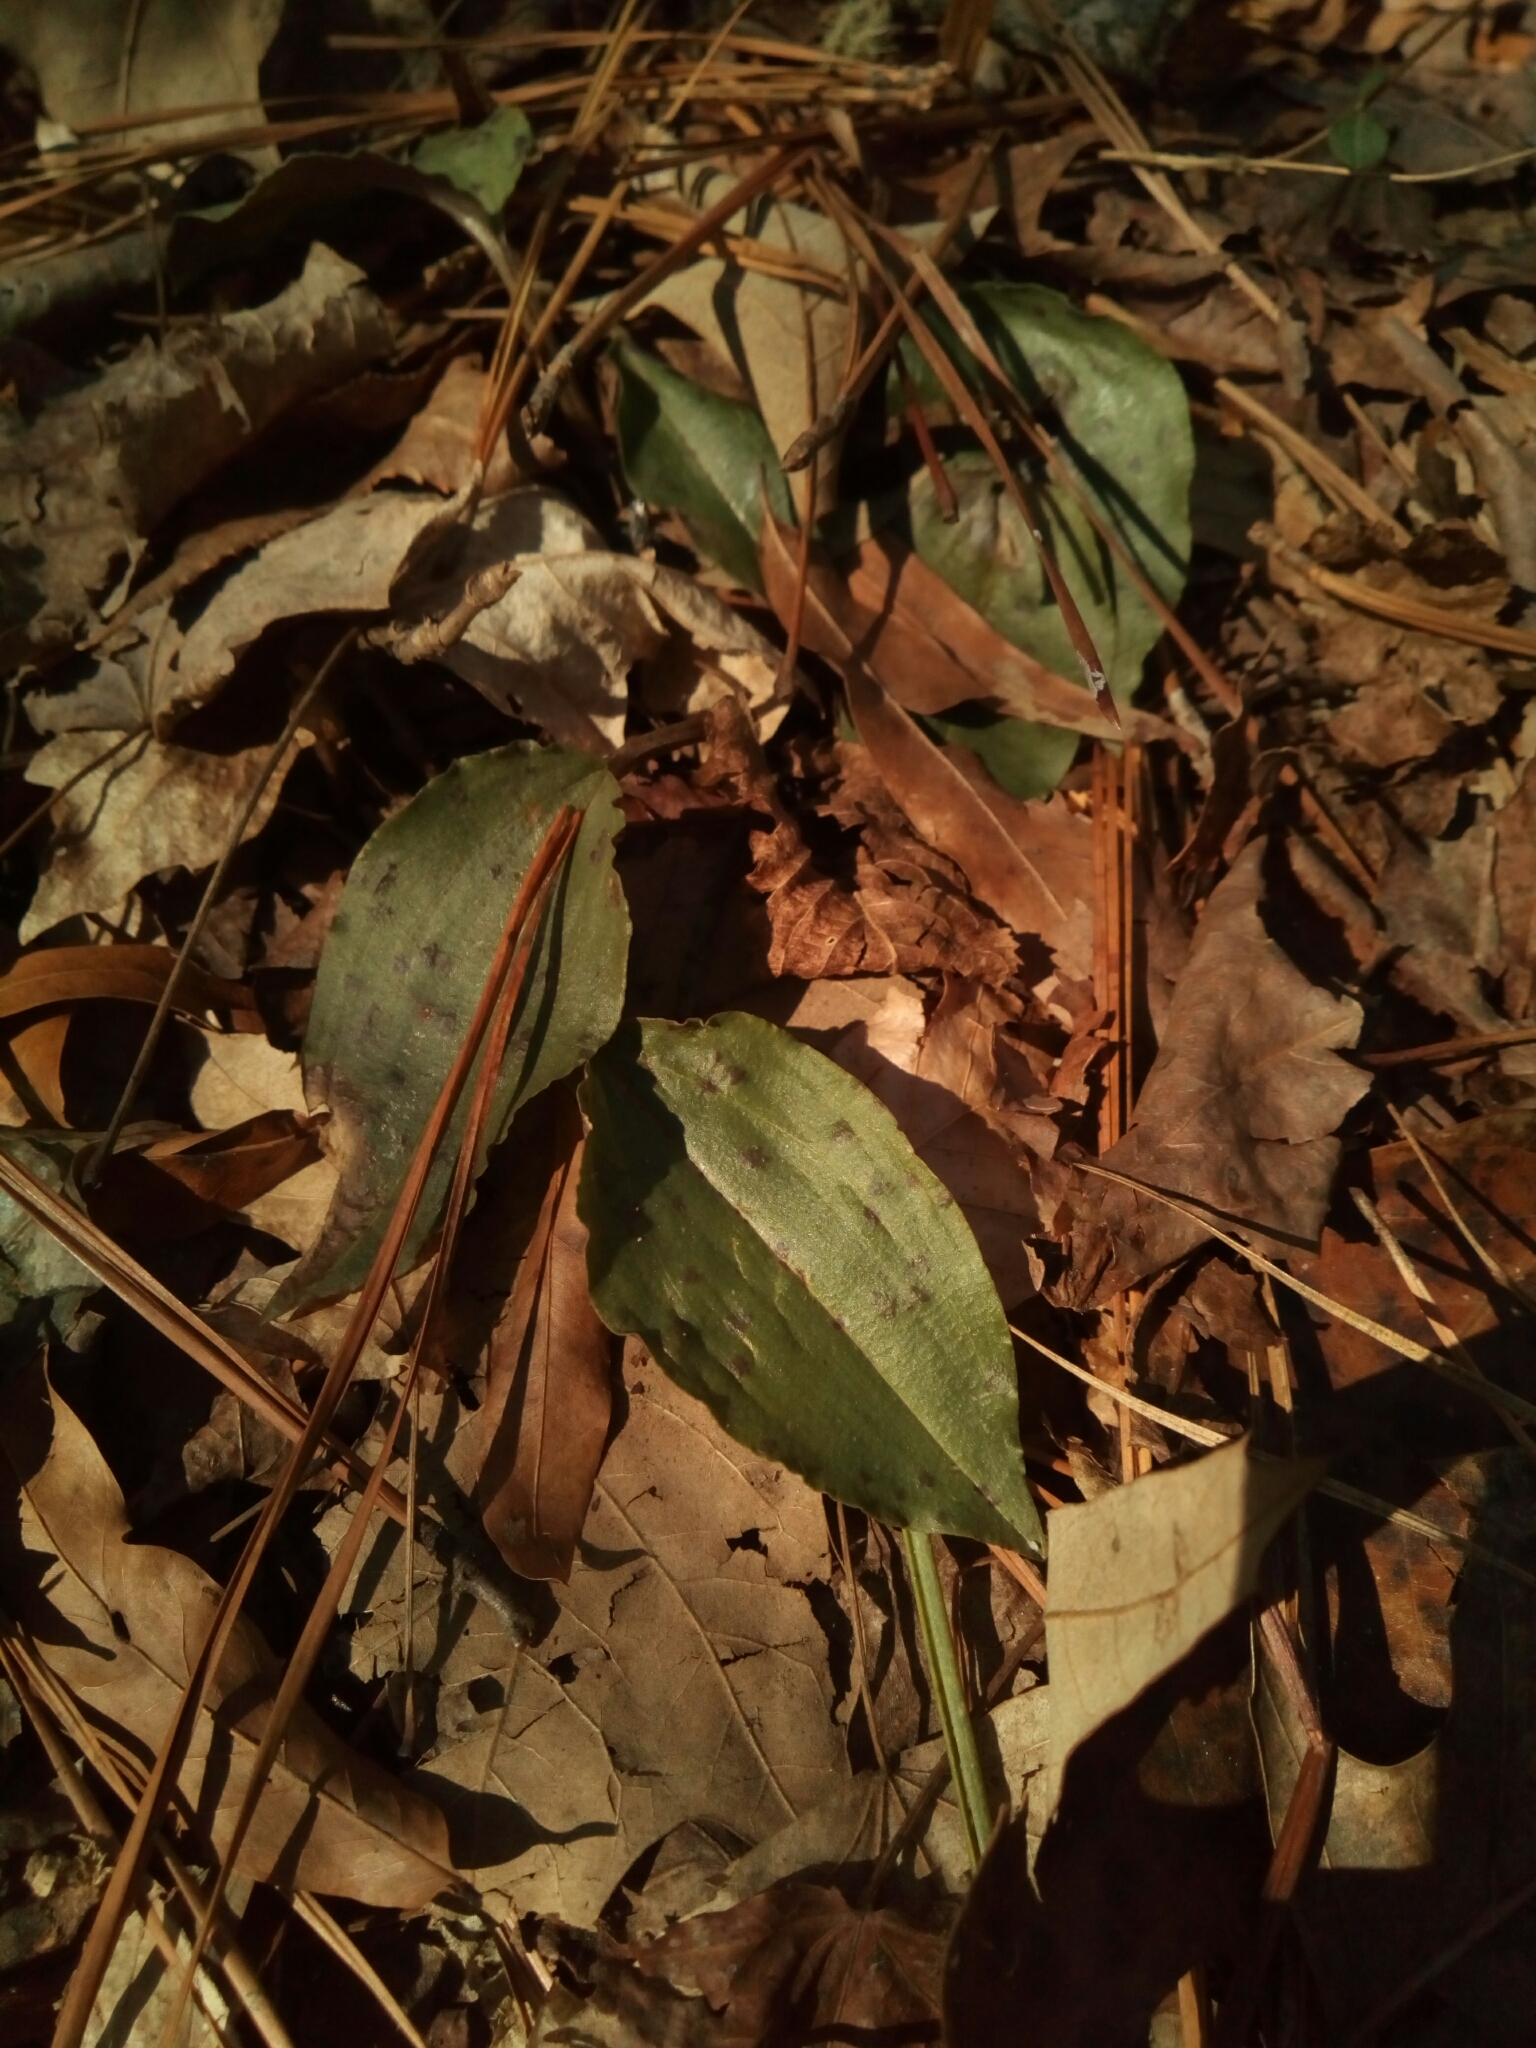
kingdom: Plantae
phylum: Tracheophyta
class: Liliopsida
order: Asparagales
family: Orchidaceae
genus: Tipularia
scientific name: Tipularia discolor
